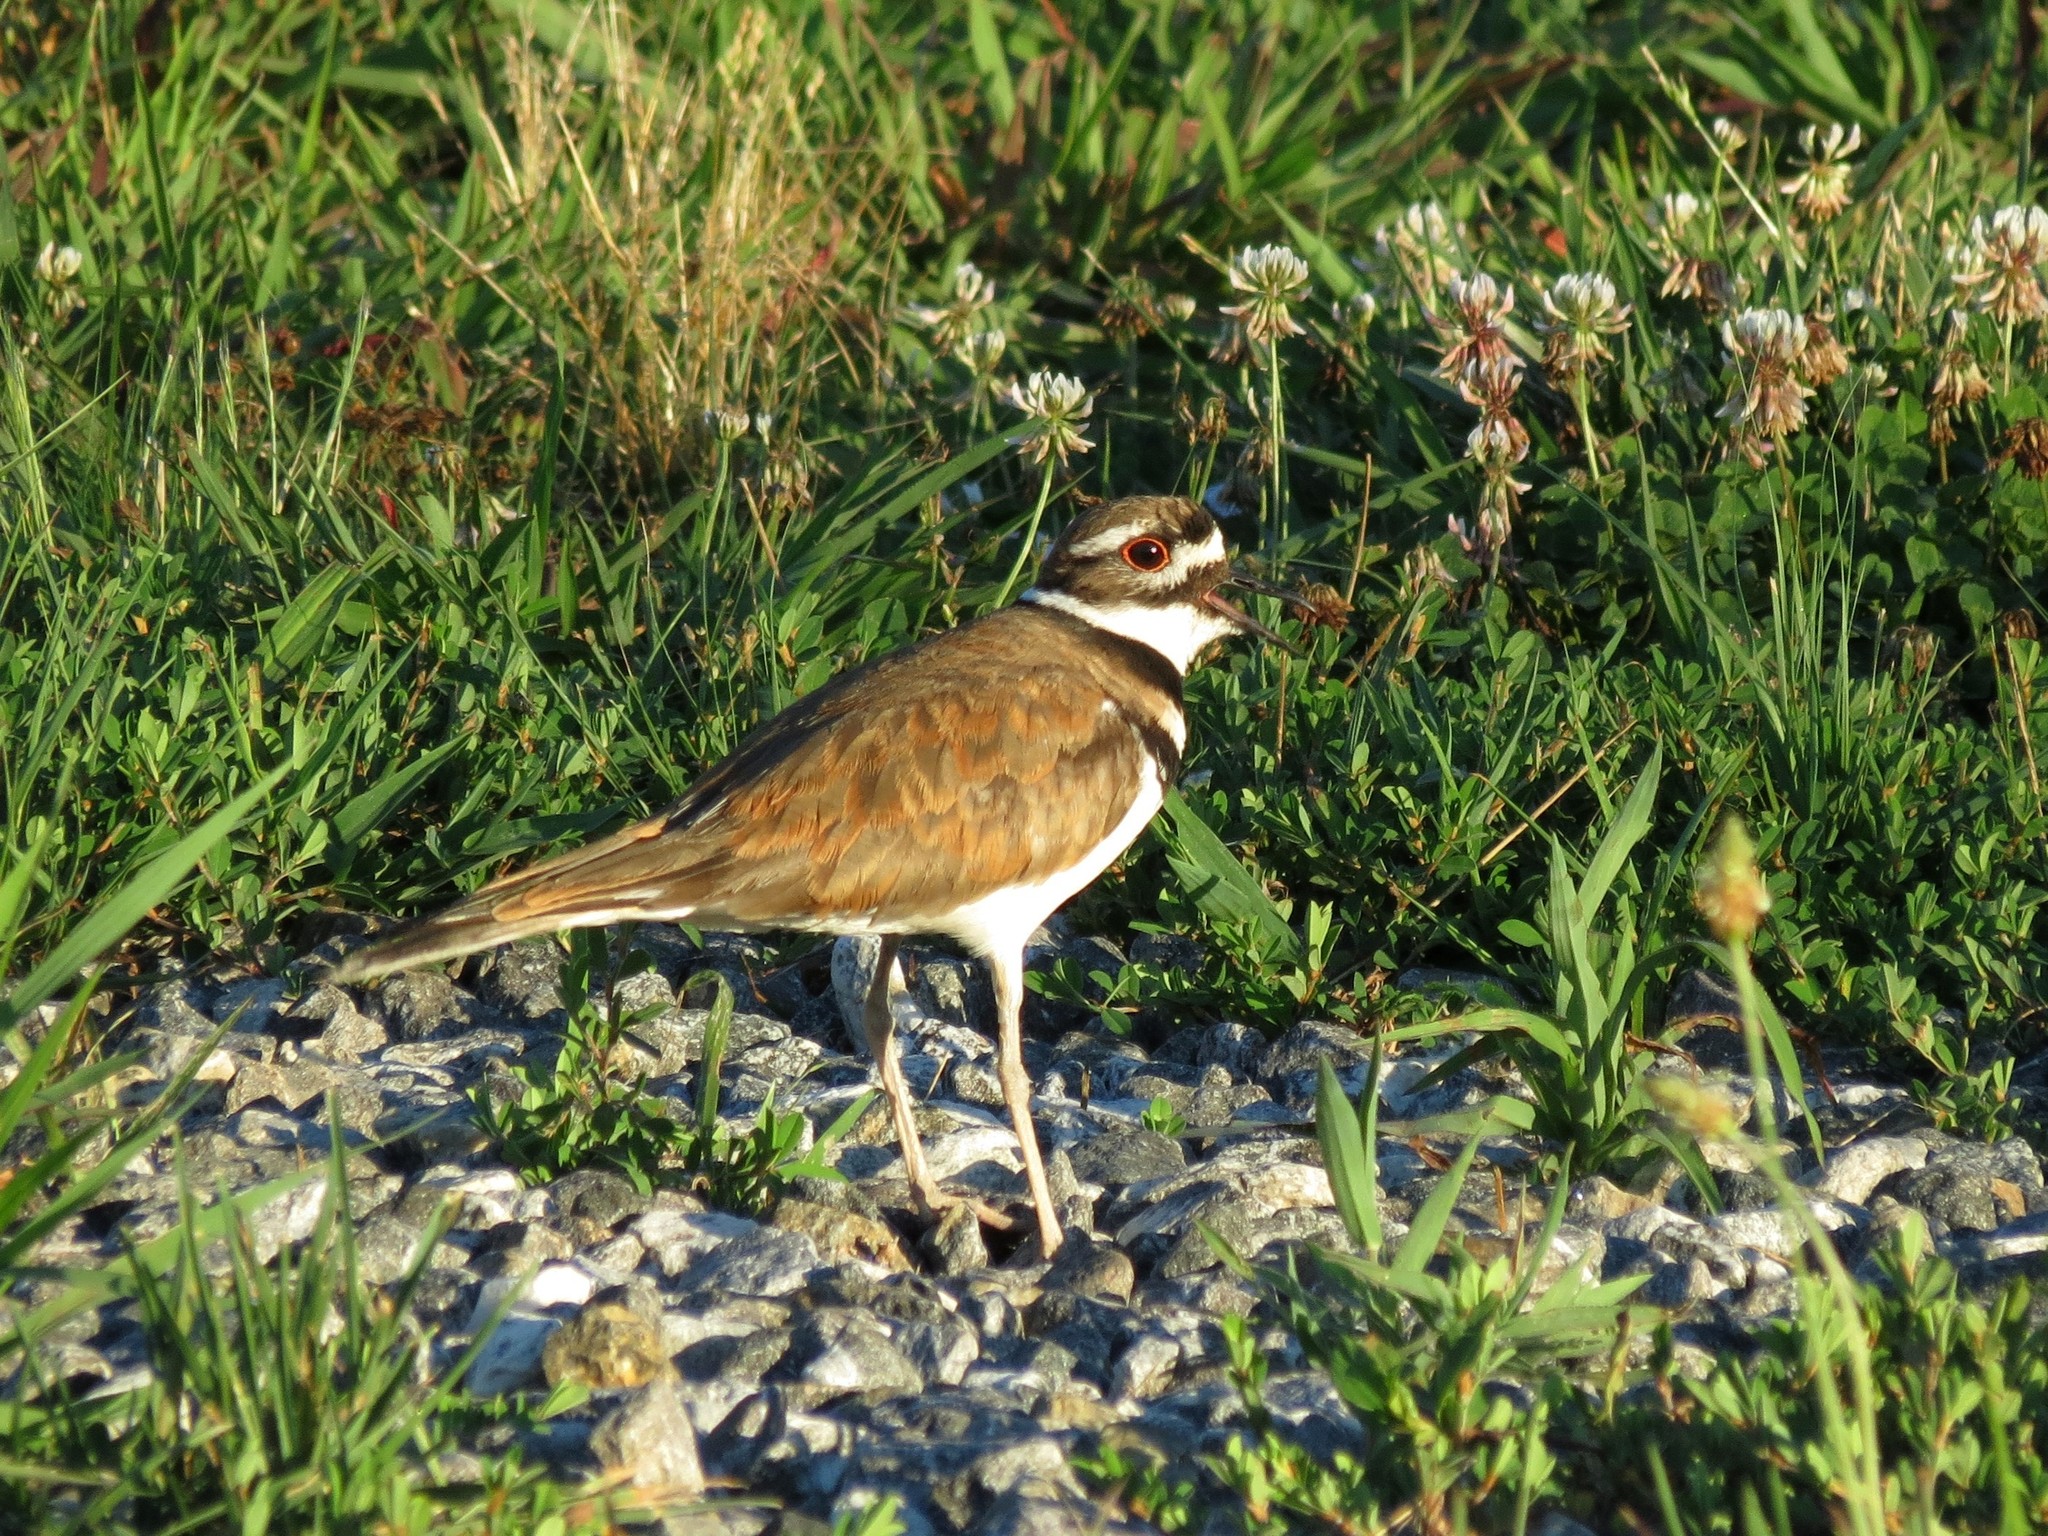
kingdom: Animalia
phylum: Chordata
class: Aves
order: Charadriiformes
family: Charadriidae
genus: Charadrius
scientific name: Charadrius vociferus
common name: Killdeer
